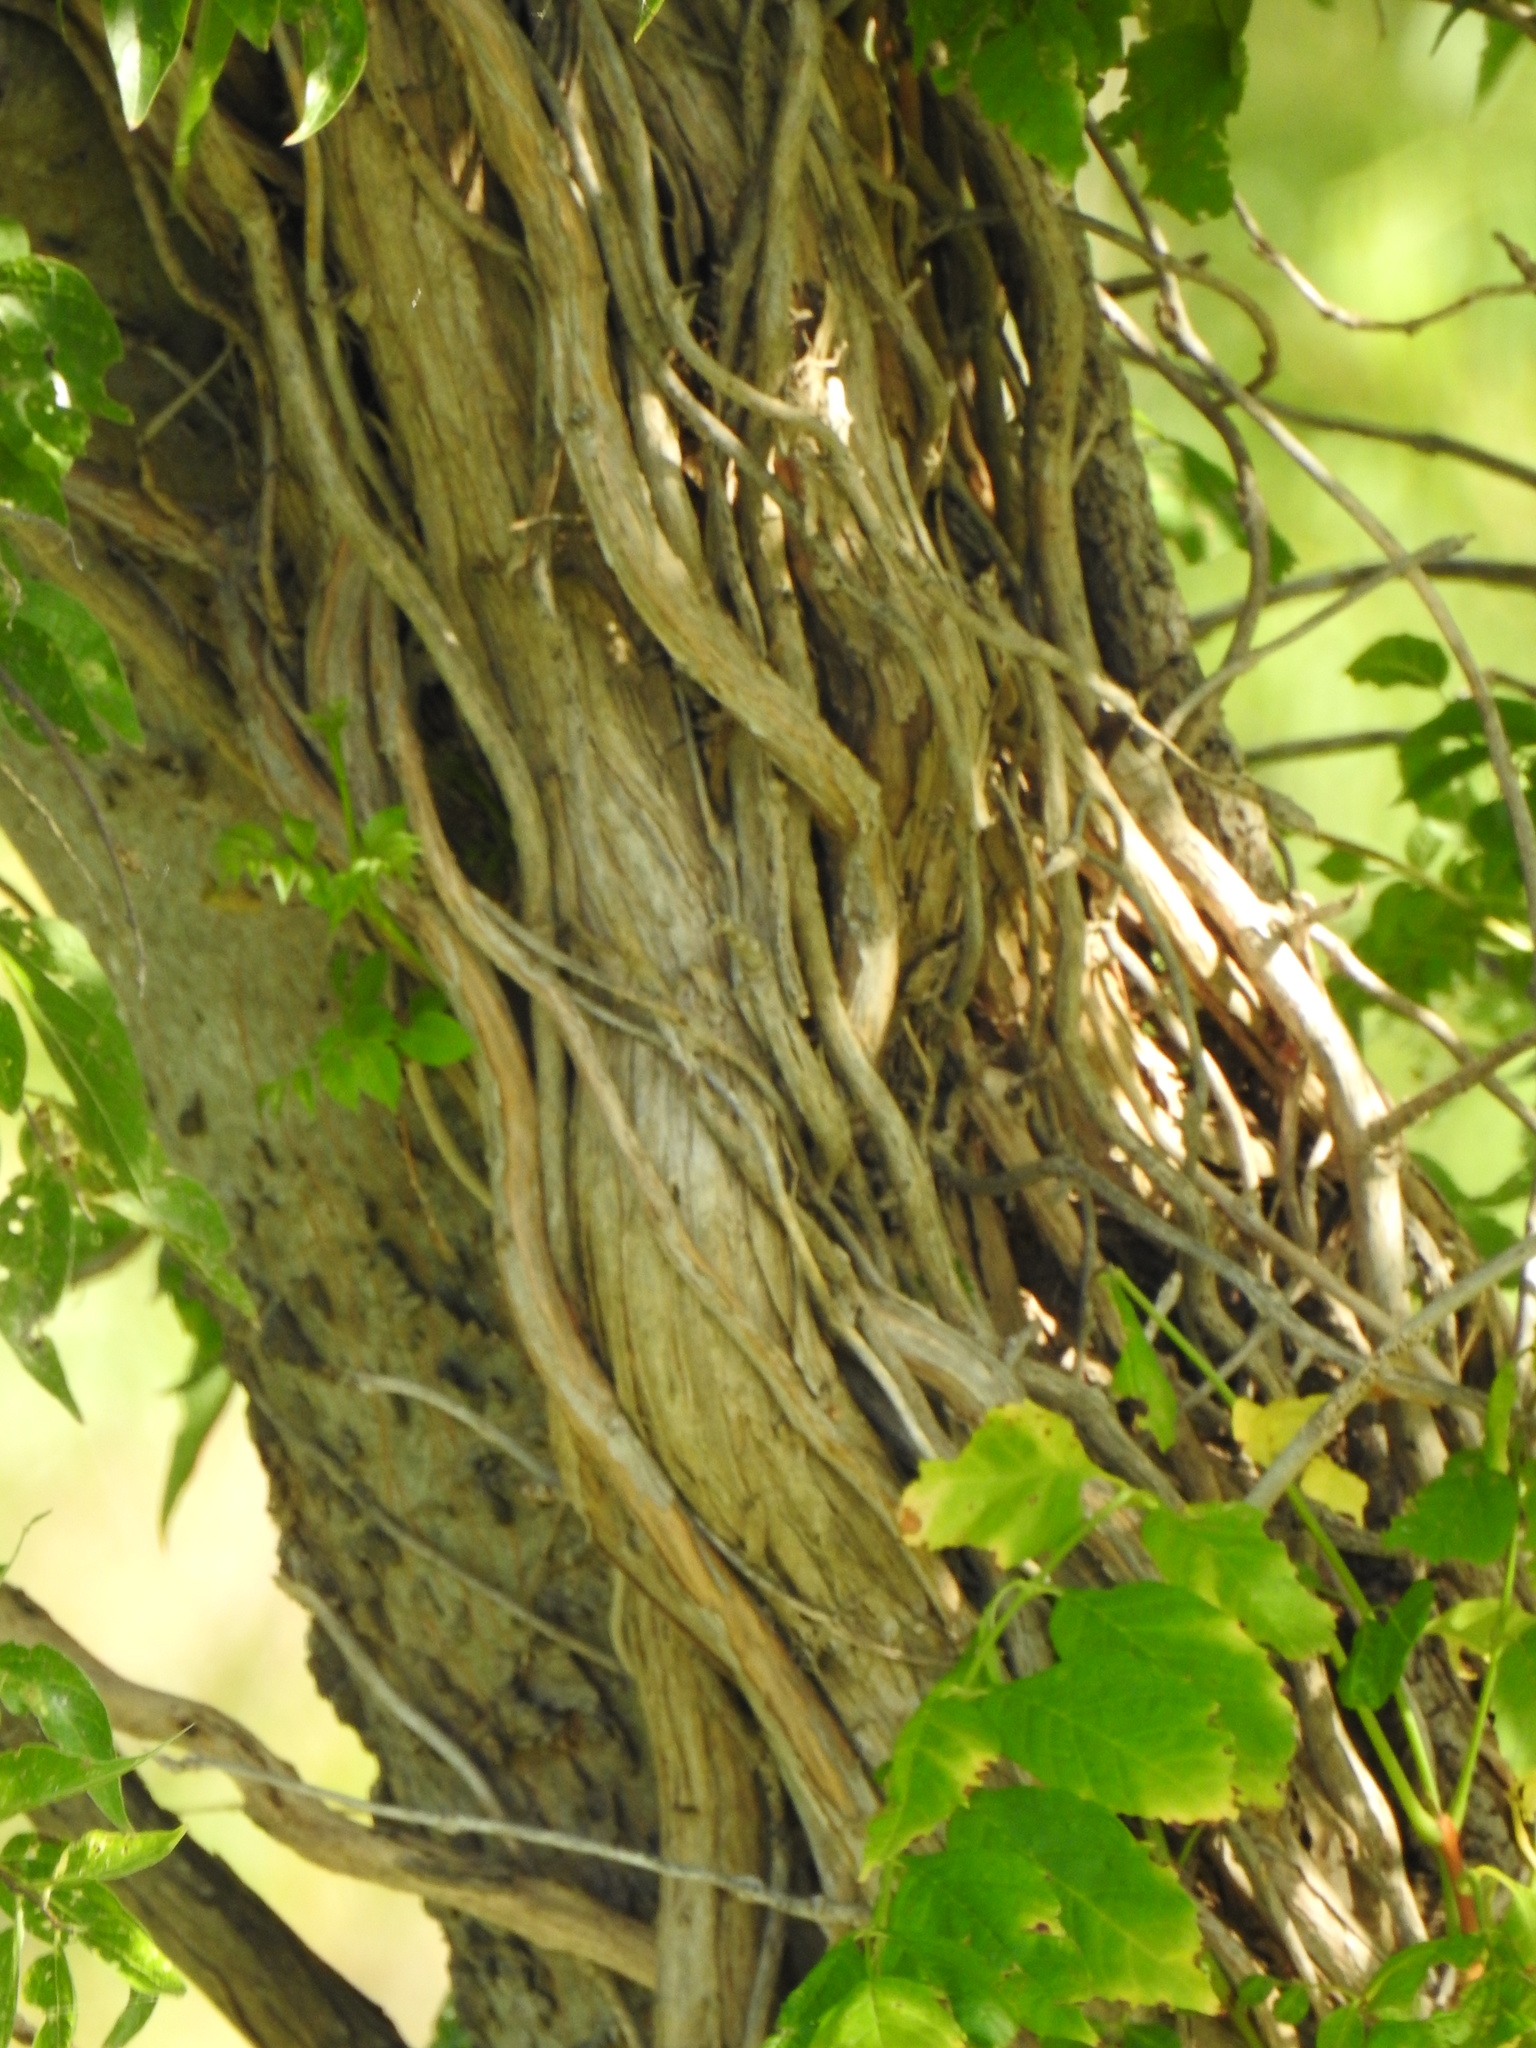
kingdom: Plantae
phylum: Tracheophyta
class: Magnoliopsida
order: Lamiales
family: Bignoniaceae
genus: Campsis
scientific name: Campsis radicans
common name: Trumpet-creeper
